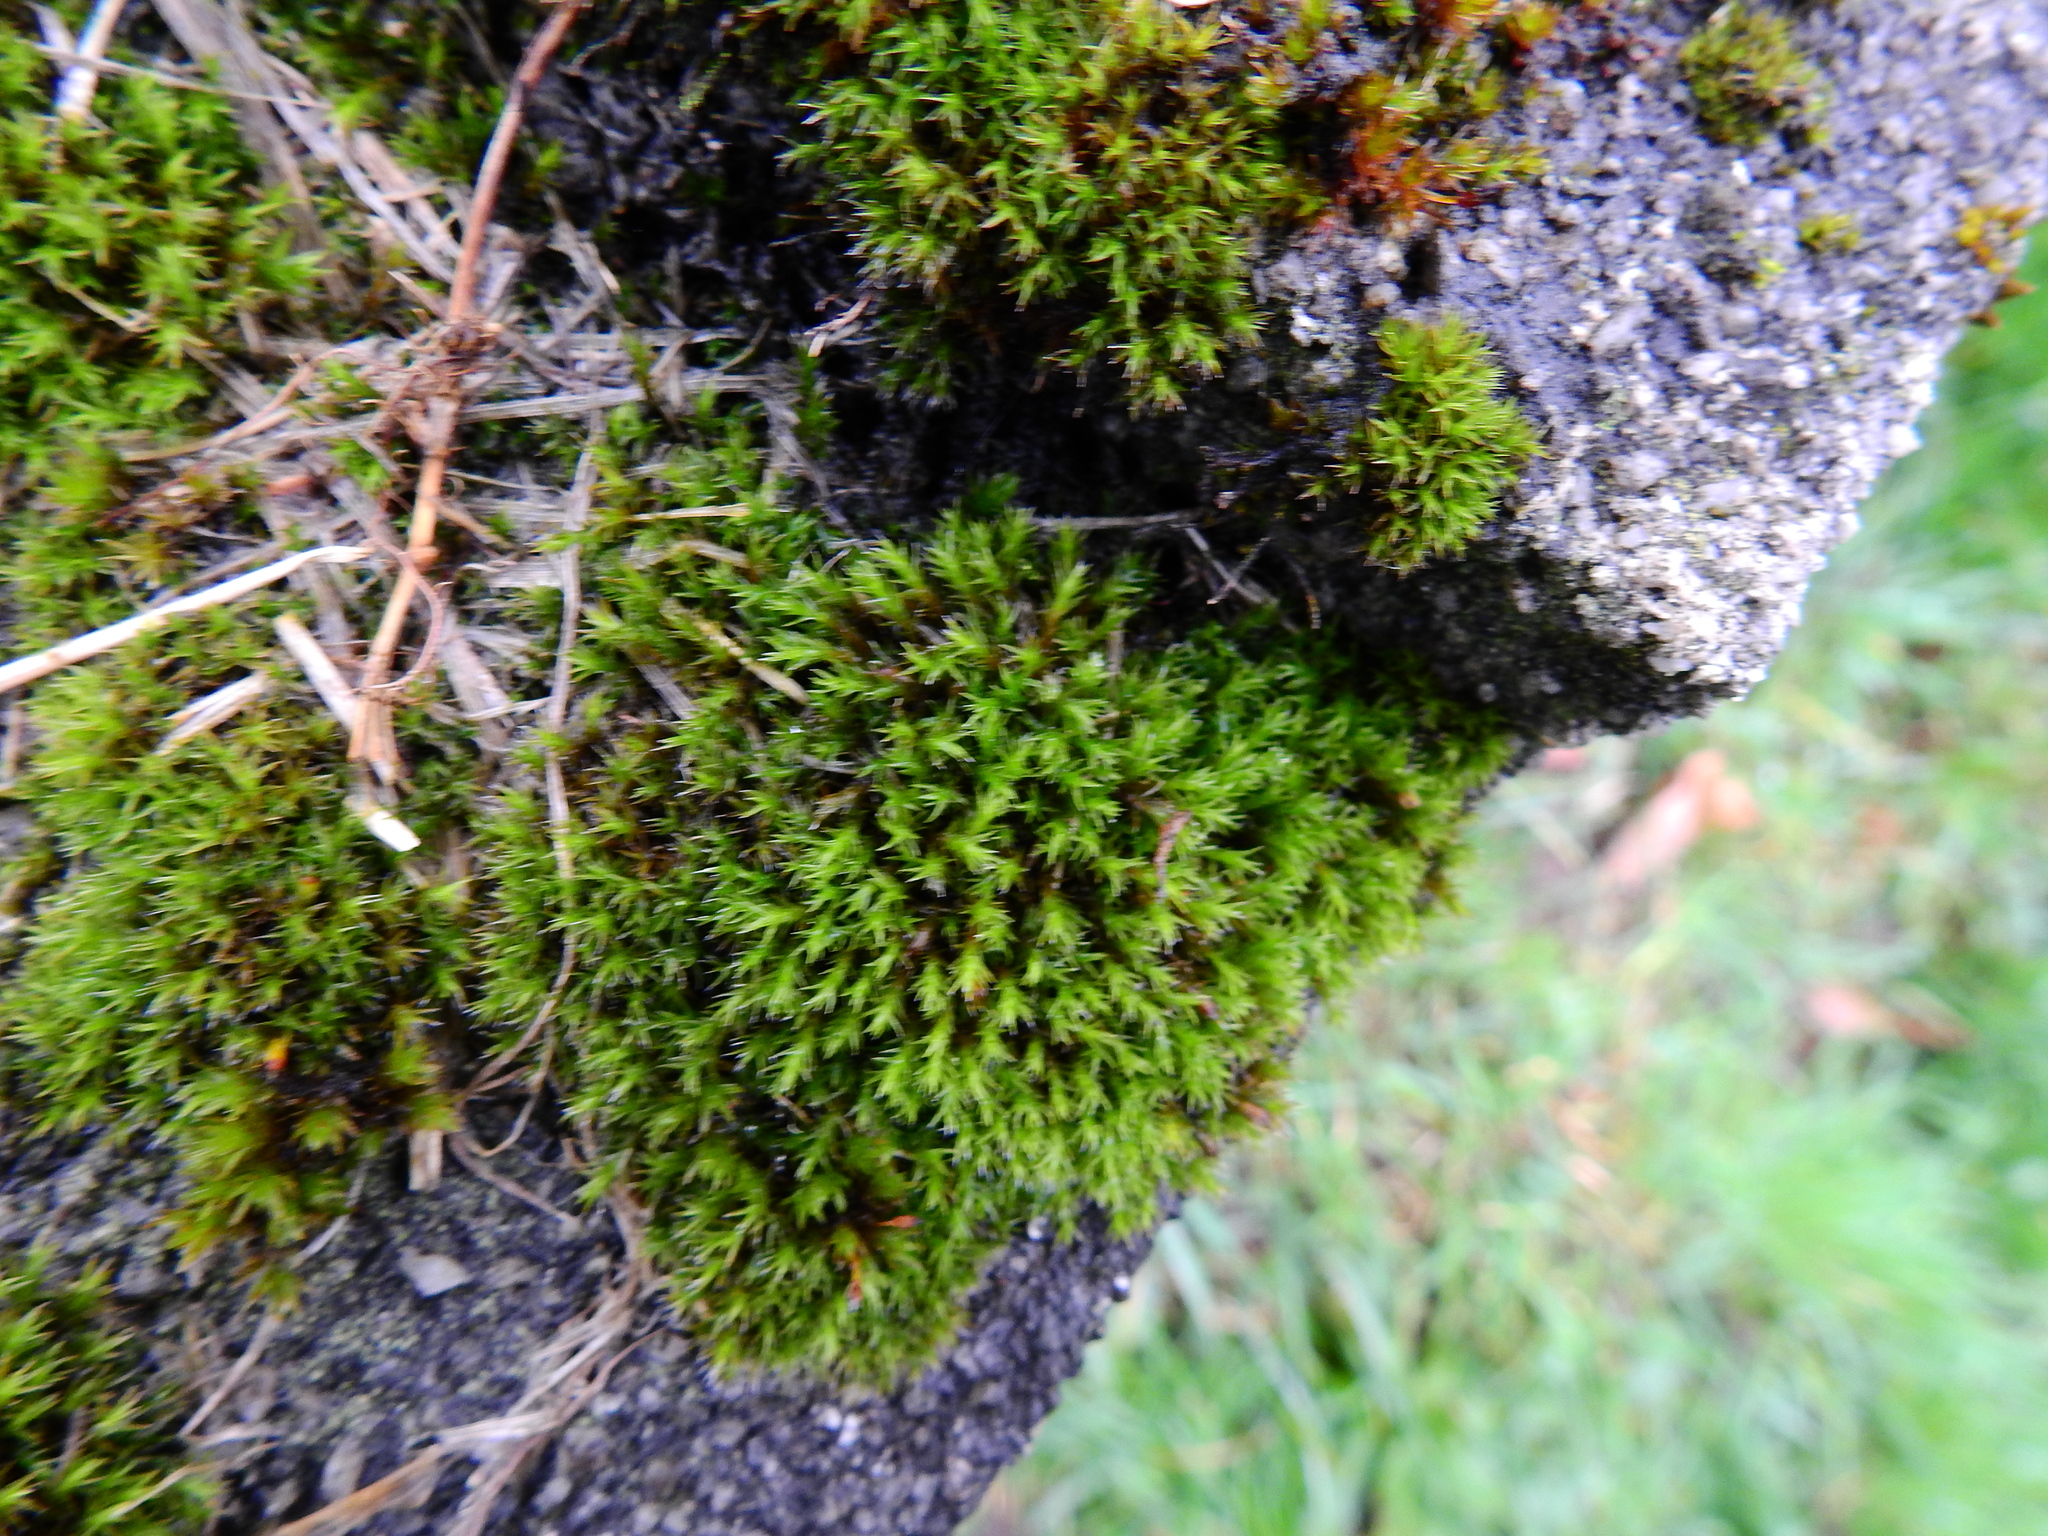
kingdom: Plantae
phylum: Bryophyta
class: Bryopsida
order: Grimmiales
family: Grimmiaceae
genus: Schistidium
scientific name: Schistidium crassipilum
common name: Thickpoint bloom moss
